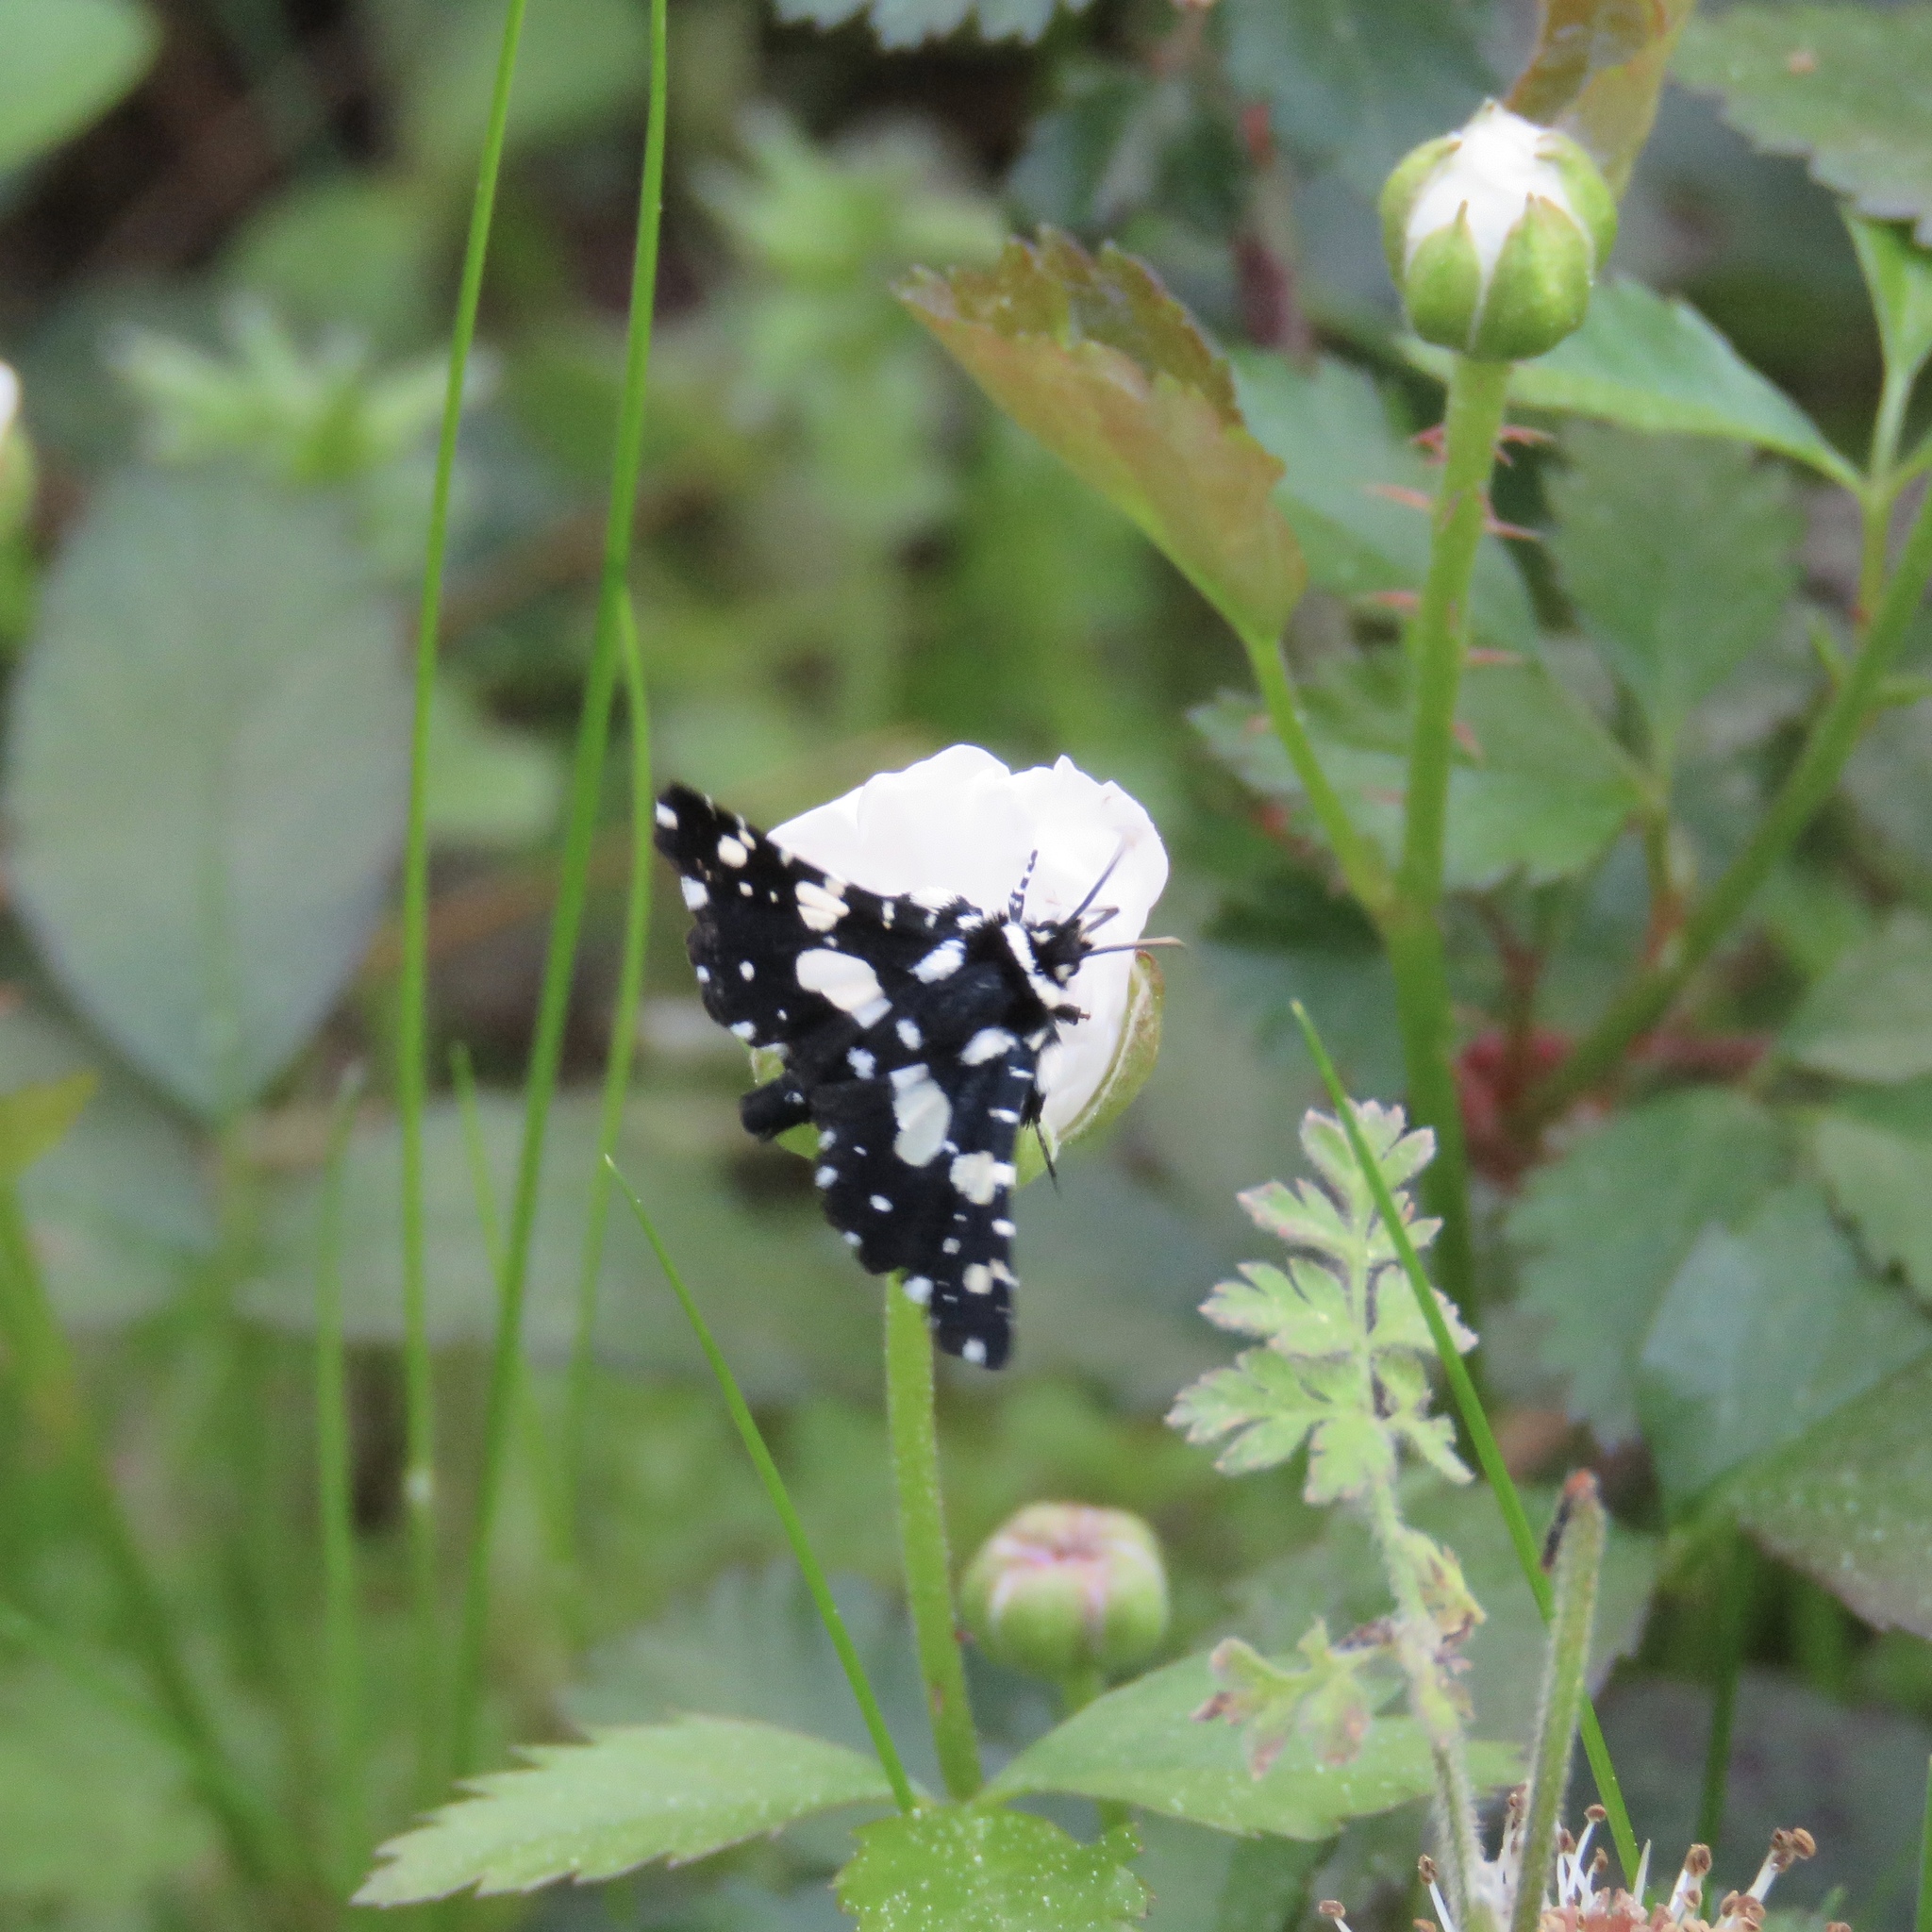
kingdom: Animalia
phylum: Arthropoda
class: Insecta
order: Lepidoptera
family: Thyrididae
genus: Pseudothyris
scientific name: Pseudothyris sepulchralis
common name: Mournful thyris moth
